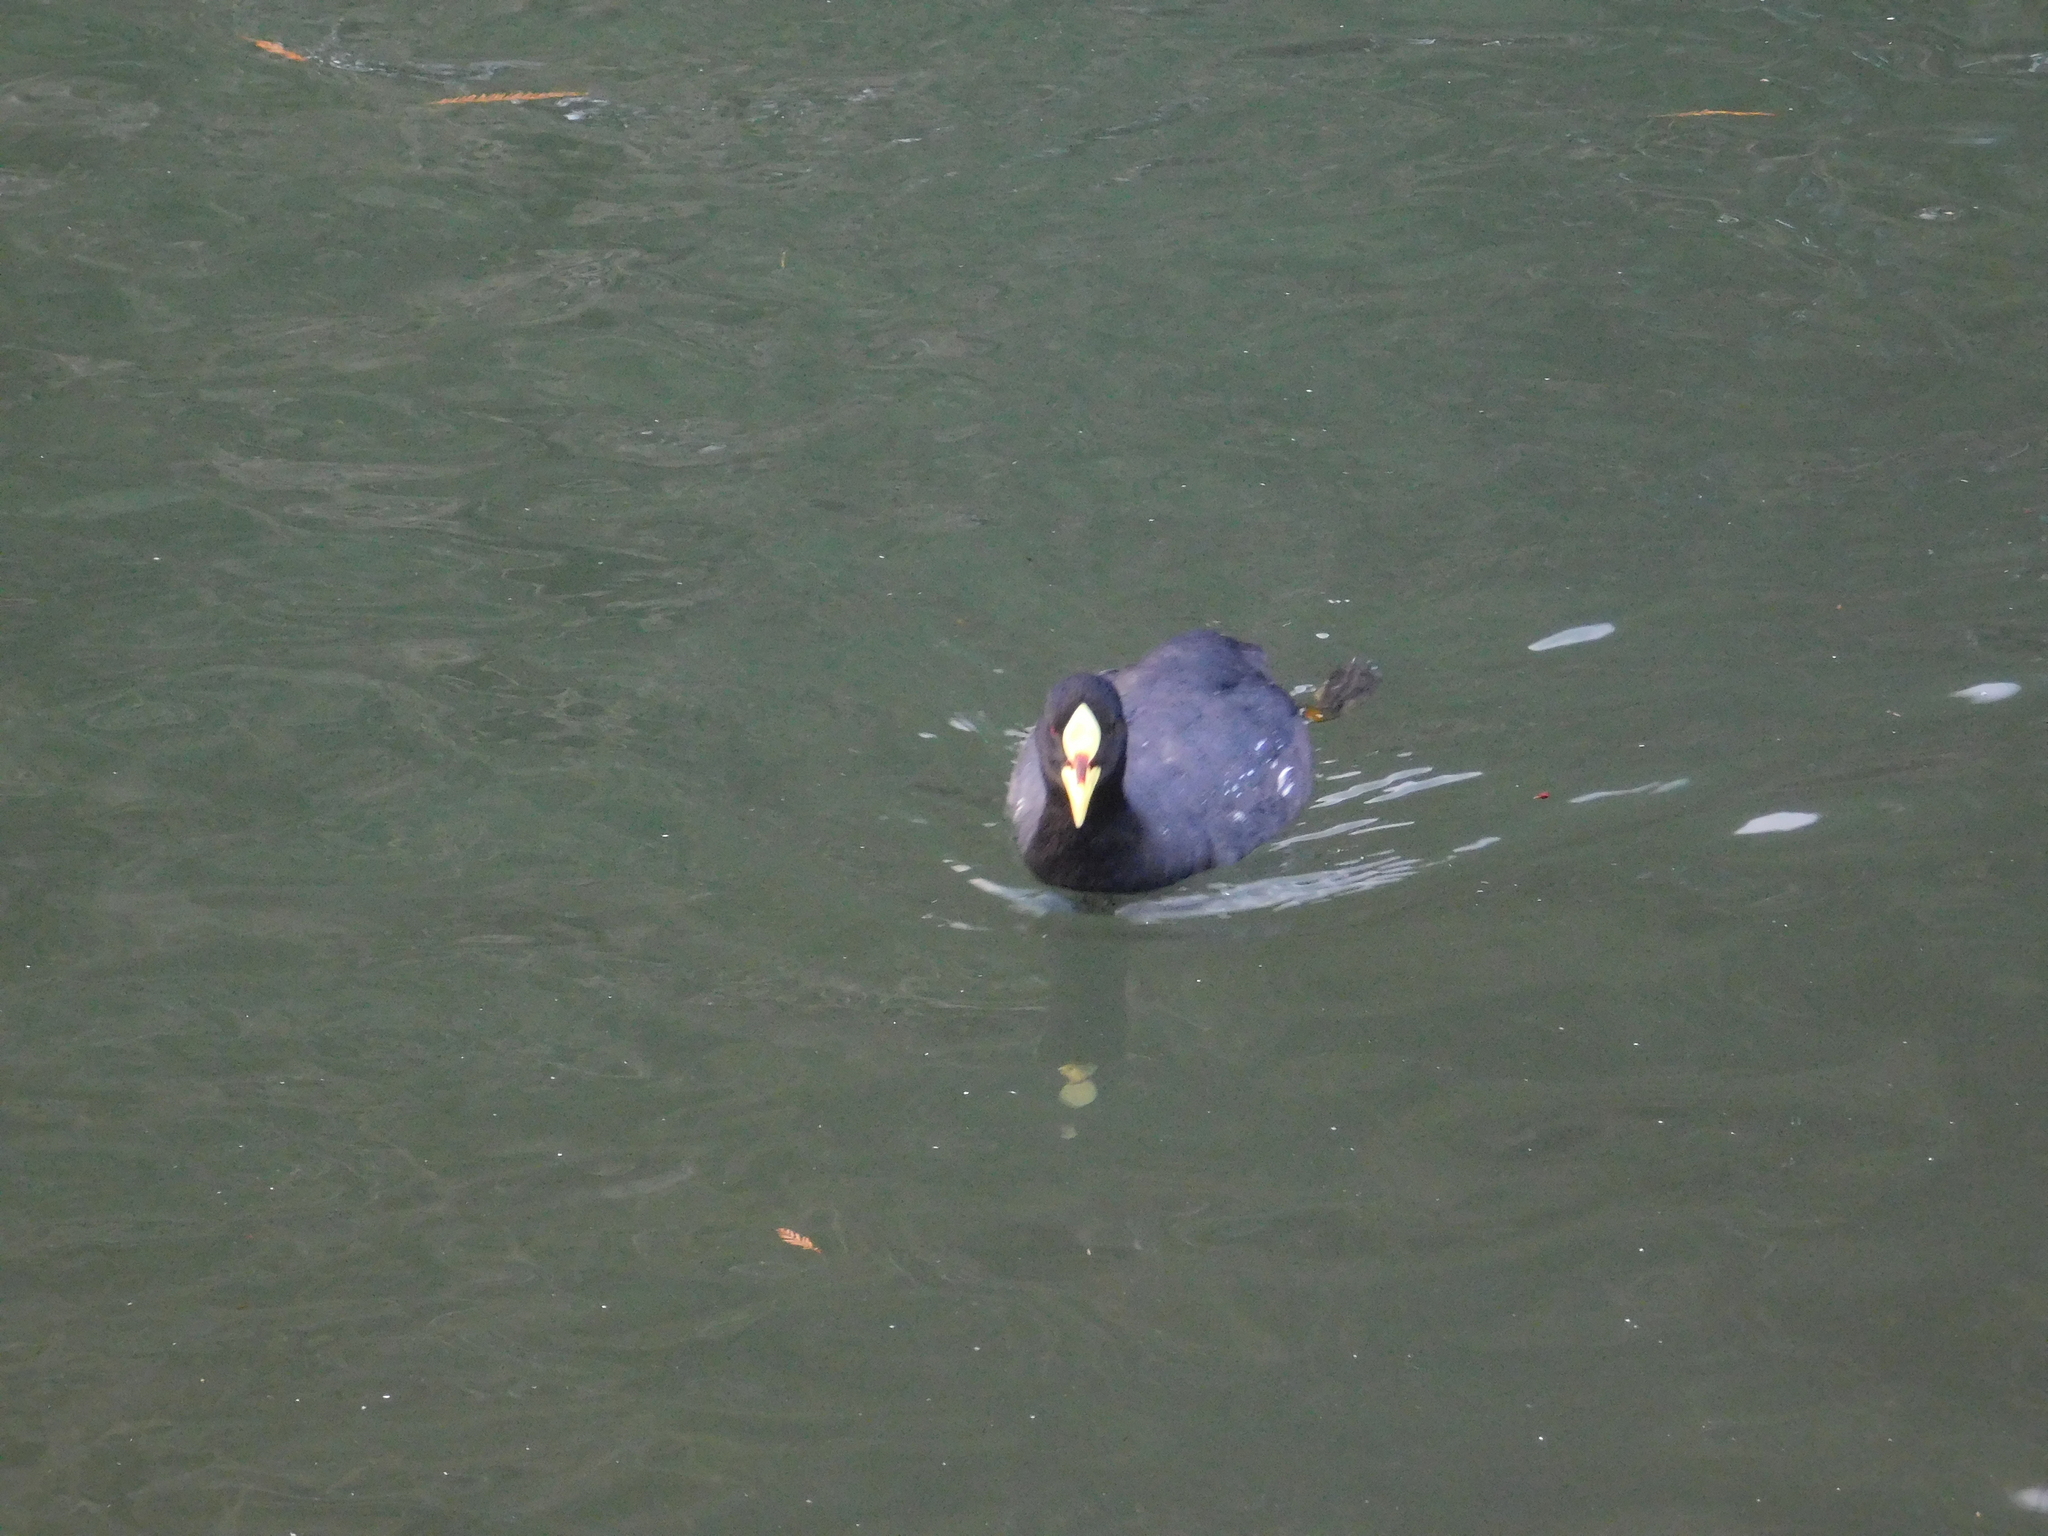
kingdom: Animalia
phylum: Chordata
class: Aves
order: Gruiformes
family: Rallidae
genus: Fulica
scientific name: Fulica armillata
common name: Red-gartered coot
